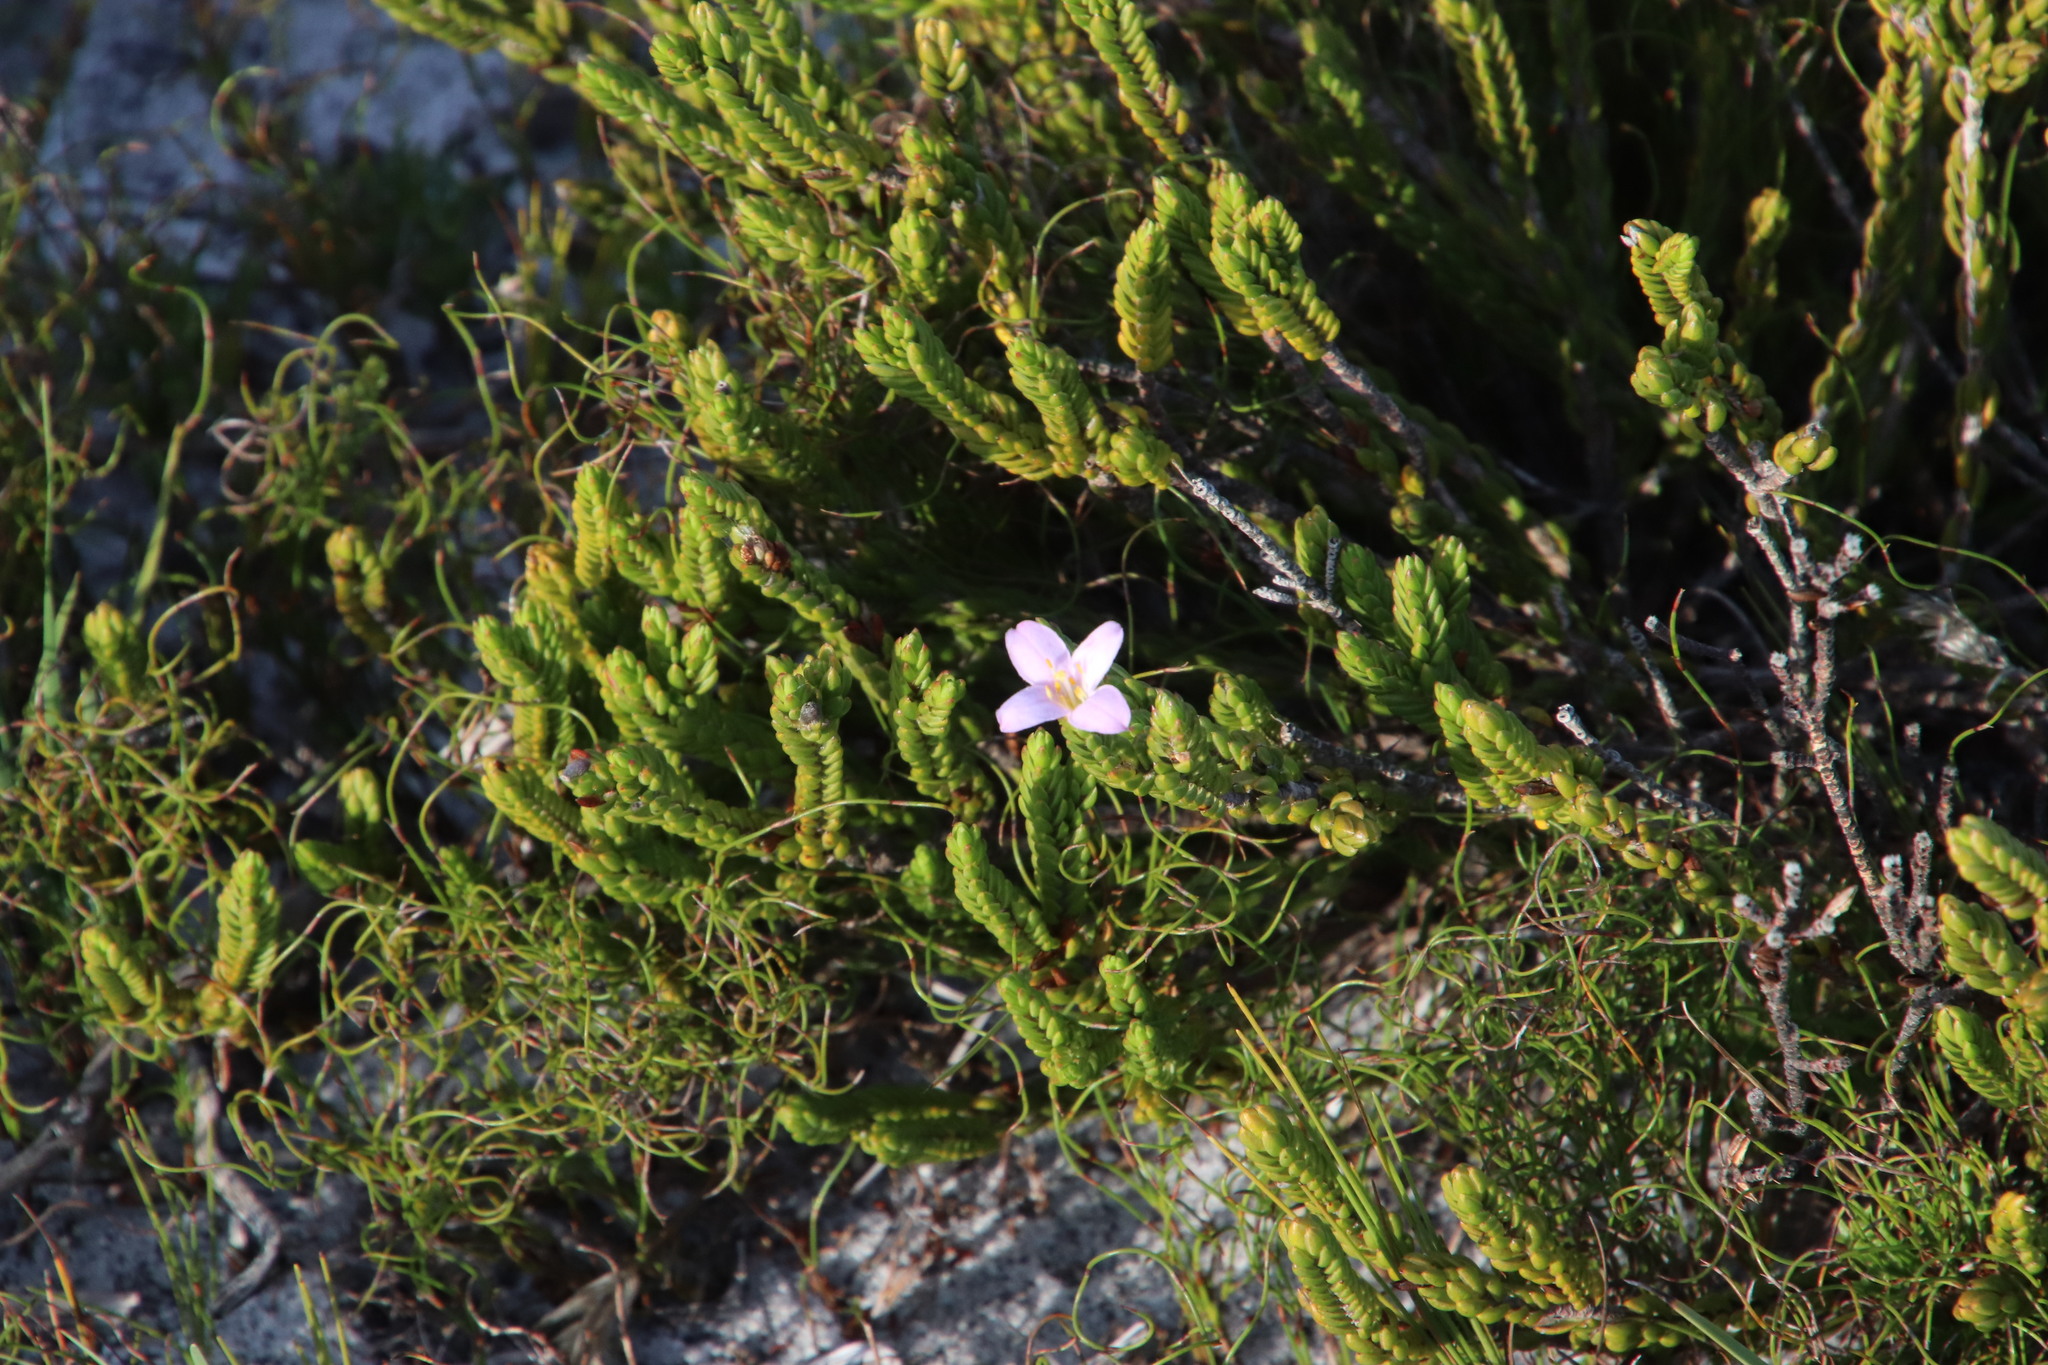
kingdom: Plantae
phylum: Tracheophyta
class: Magnoliopsida
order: Malvales
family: Thymelaeaceae
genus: Lachnaea
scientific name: Lachnaea grandiflora
